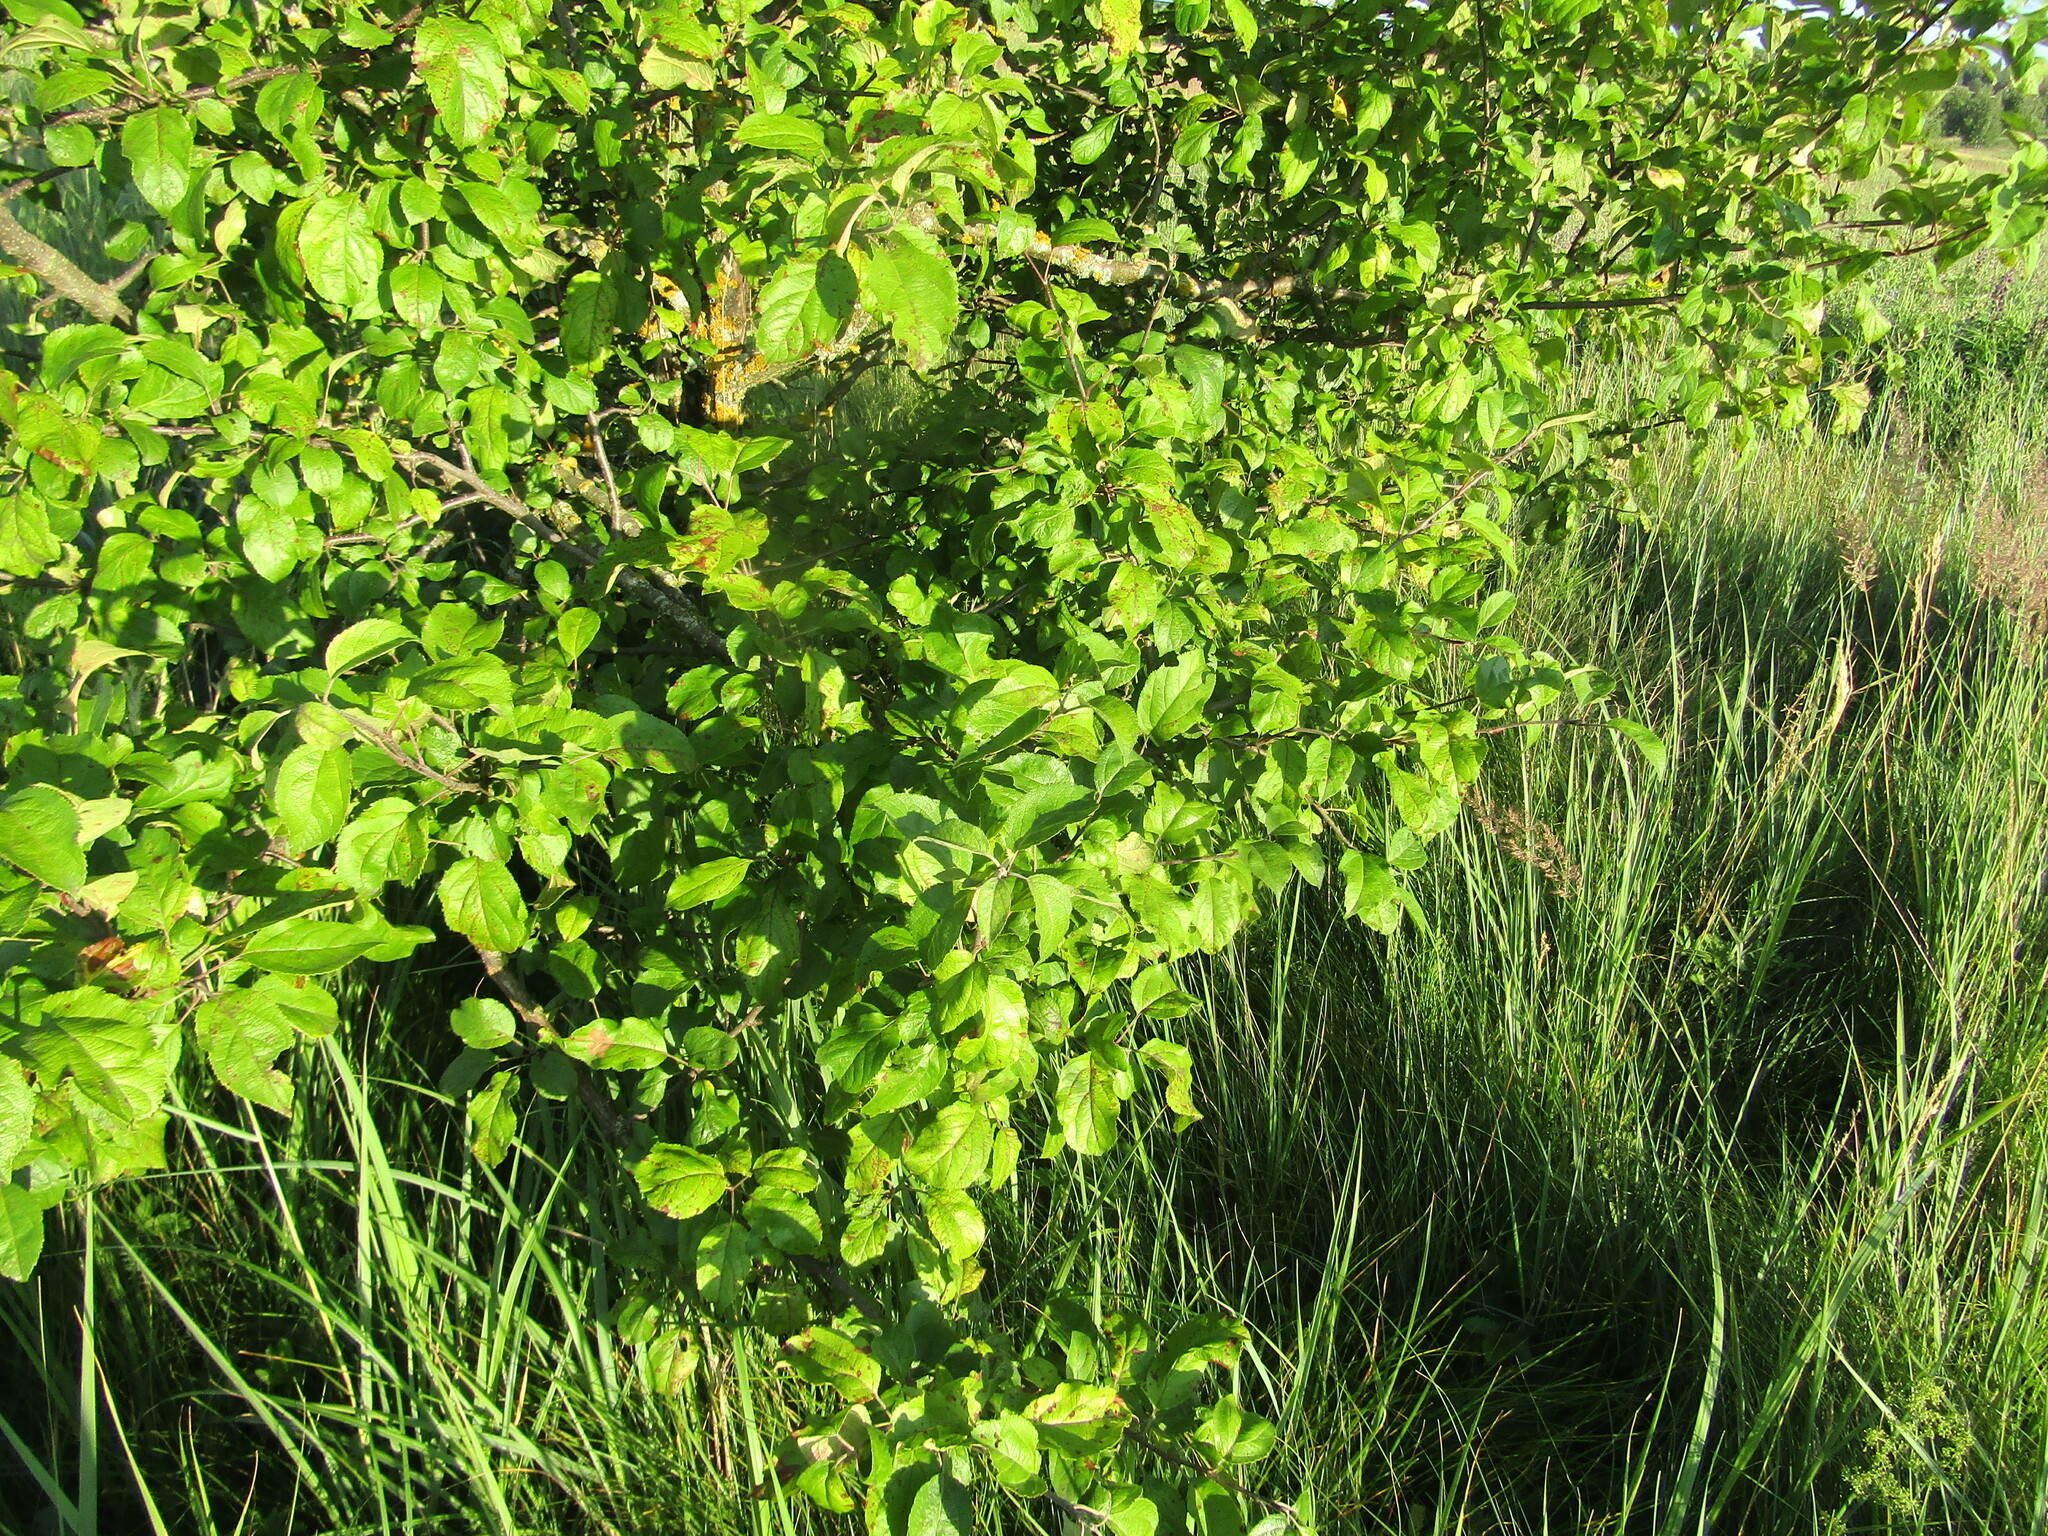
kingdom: Plantae
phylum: Tracheophyta
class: Magnoliopsida
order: Rosales
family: Rosaceae
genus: Malus
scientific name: Malus domestica
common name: Apple
